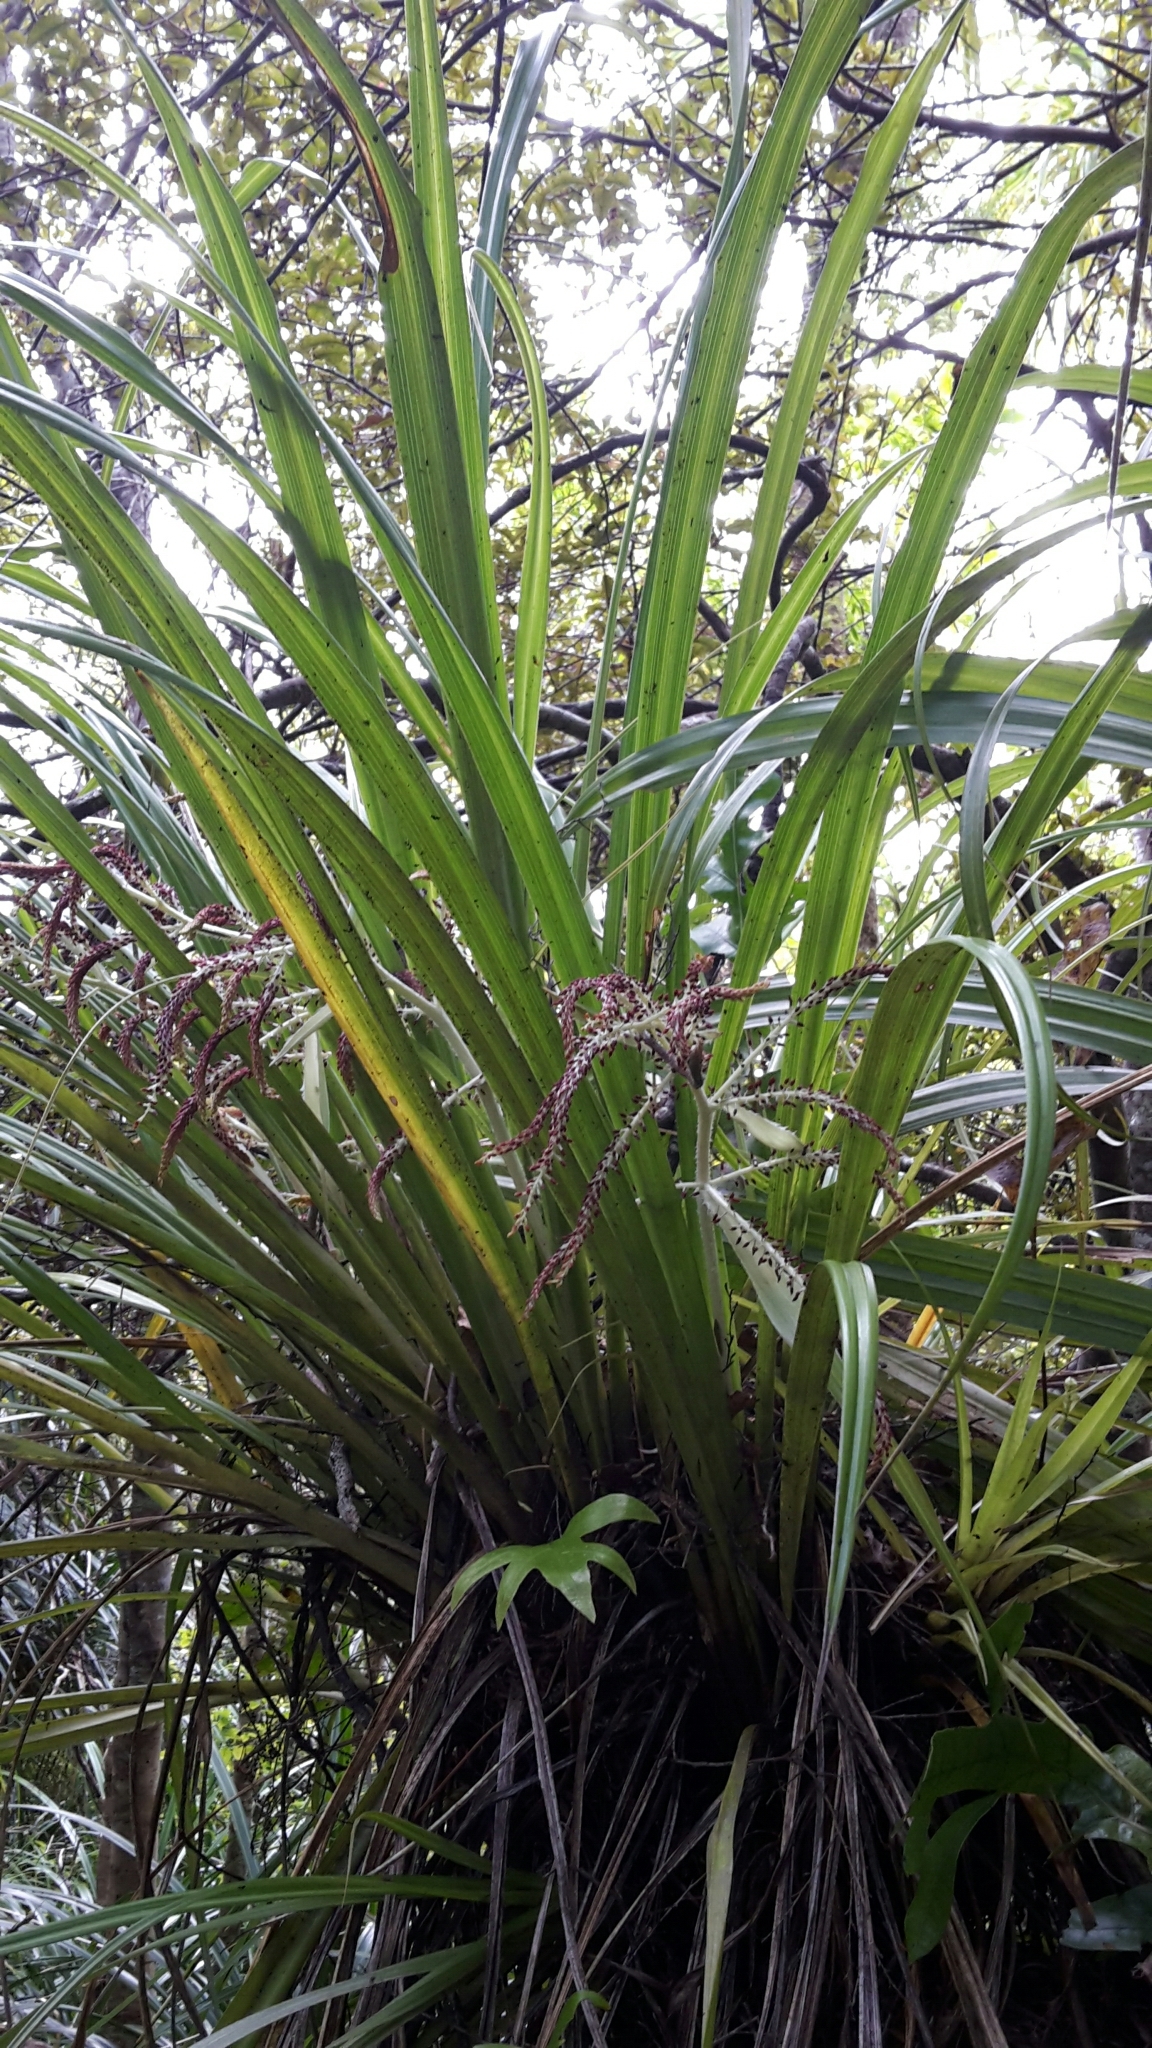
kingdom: Plantae
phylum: Tracheophyta
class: Liliopsida
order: Asparagales
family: Asteliaceae
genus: Astelia
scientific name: Astelia solandri
